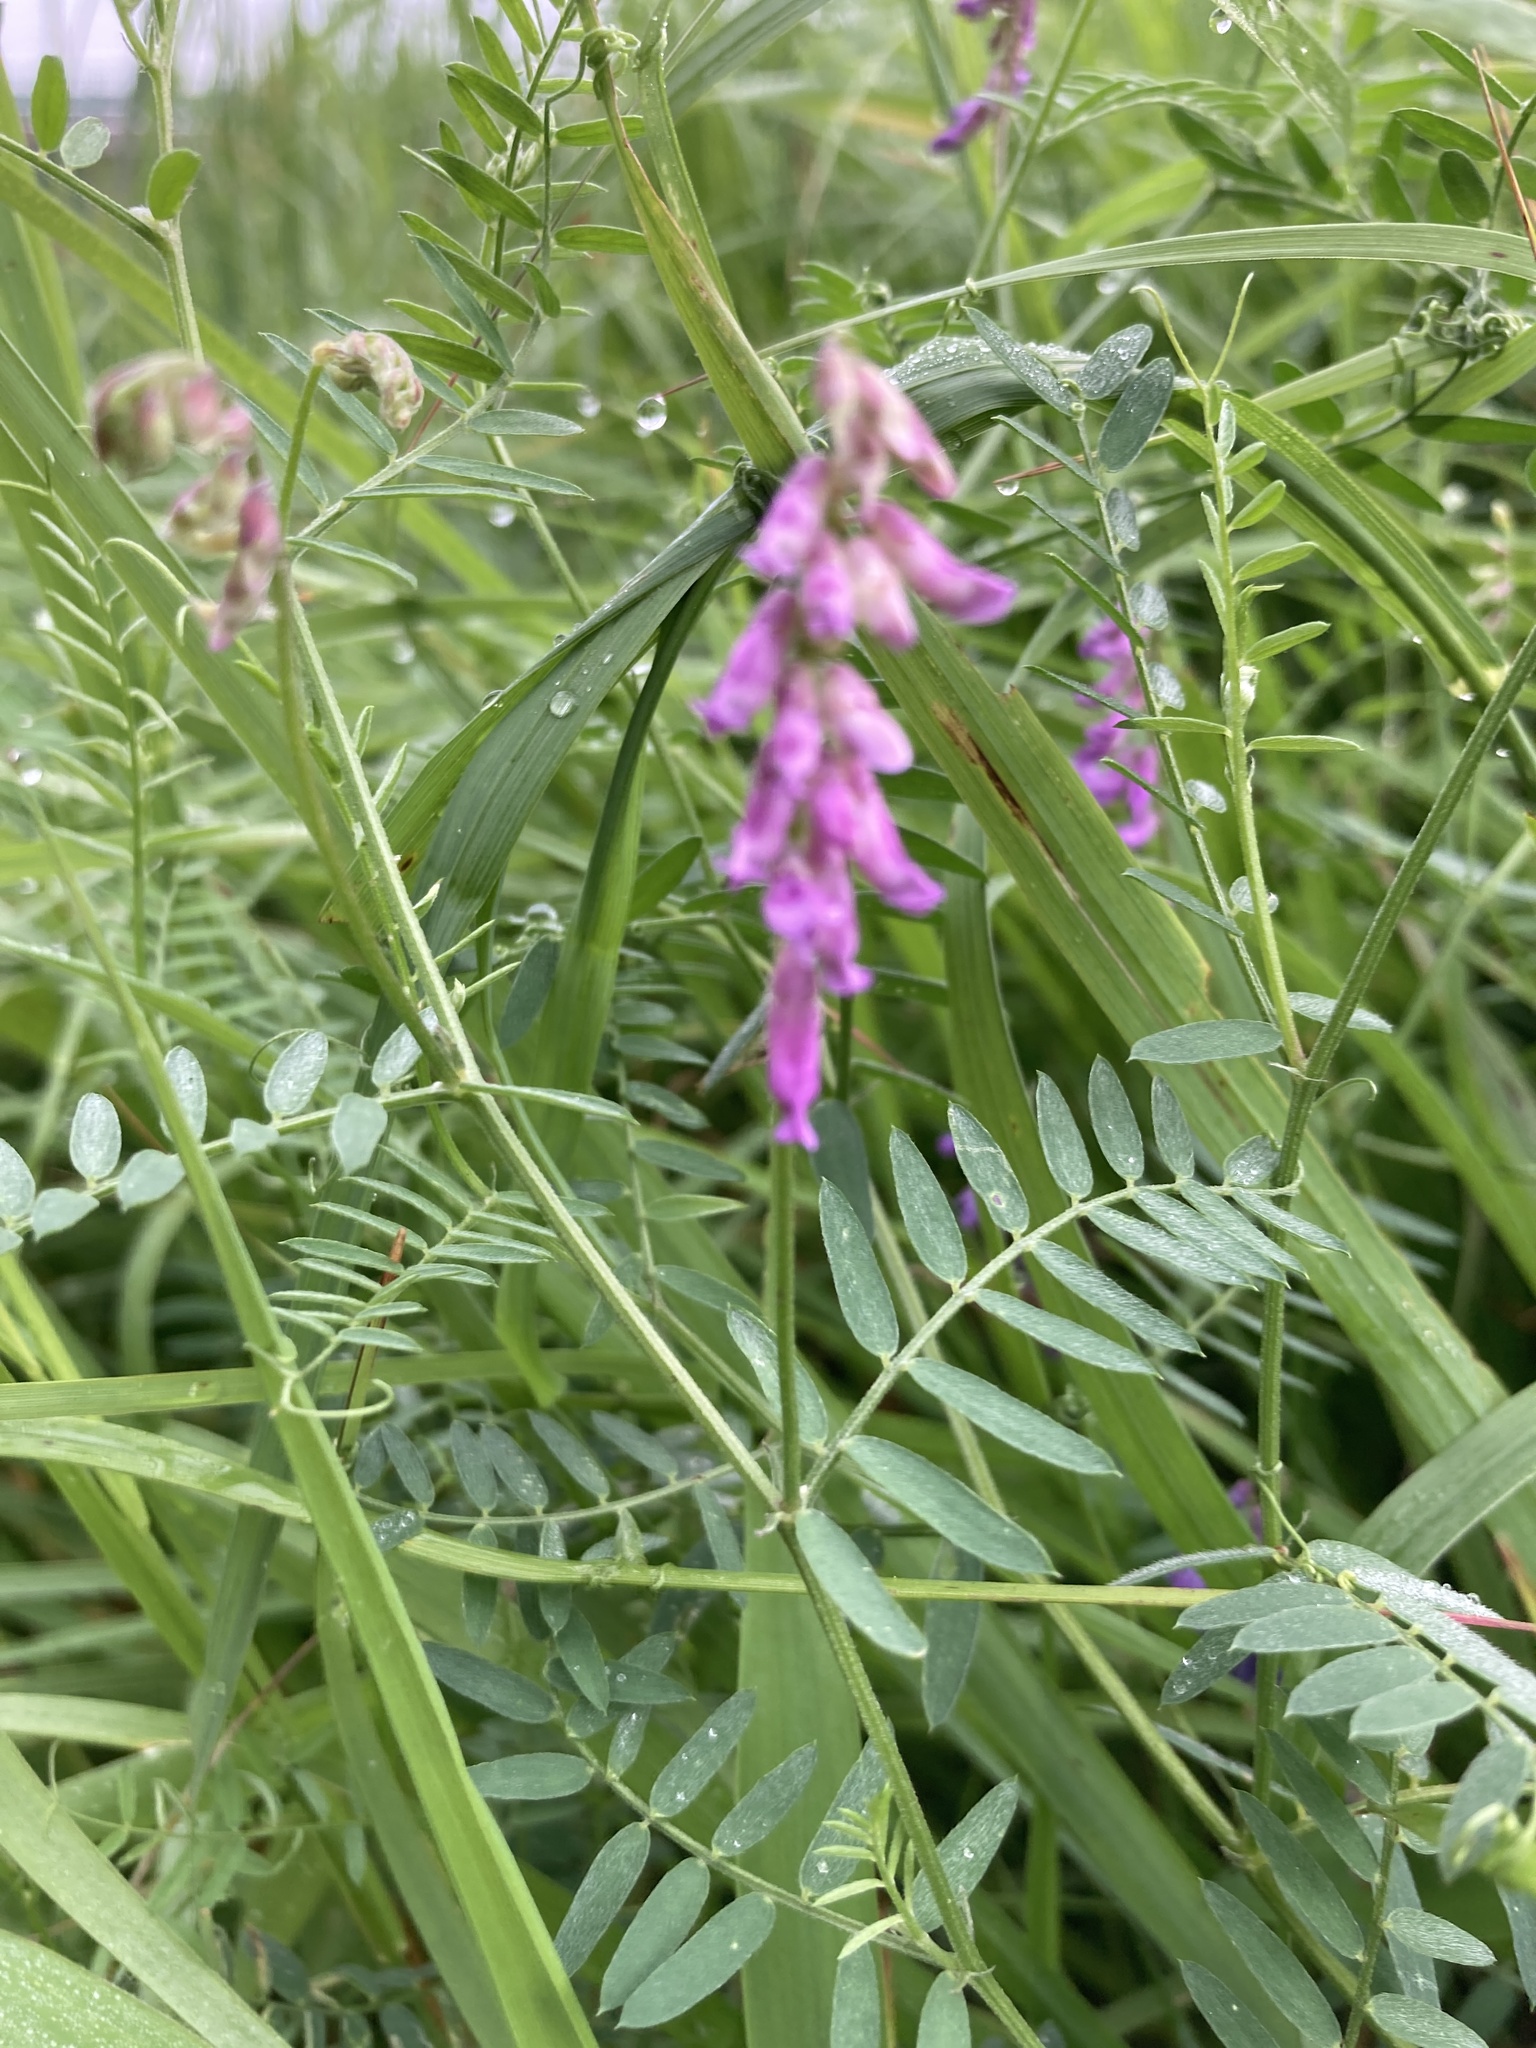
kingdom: Plantae
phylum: Tracheophyta
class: Magnoliopsida
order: Fabales
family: Fabaceae
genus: Vicia
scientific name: Vicia cracca
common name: Bird vetch
